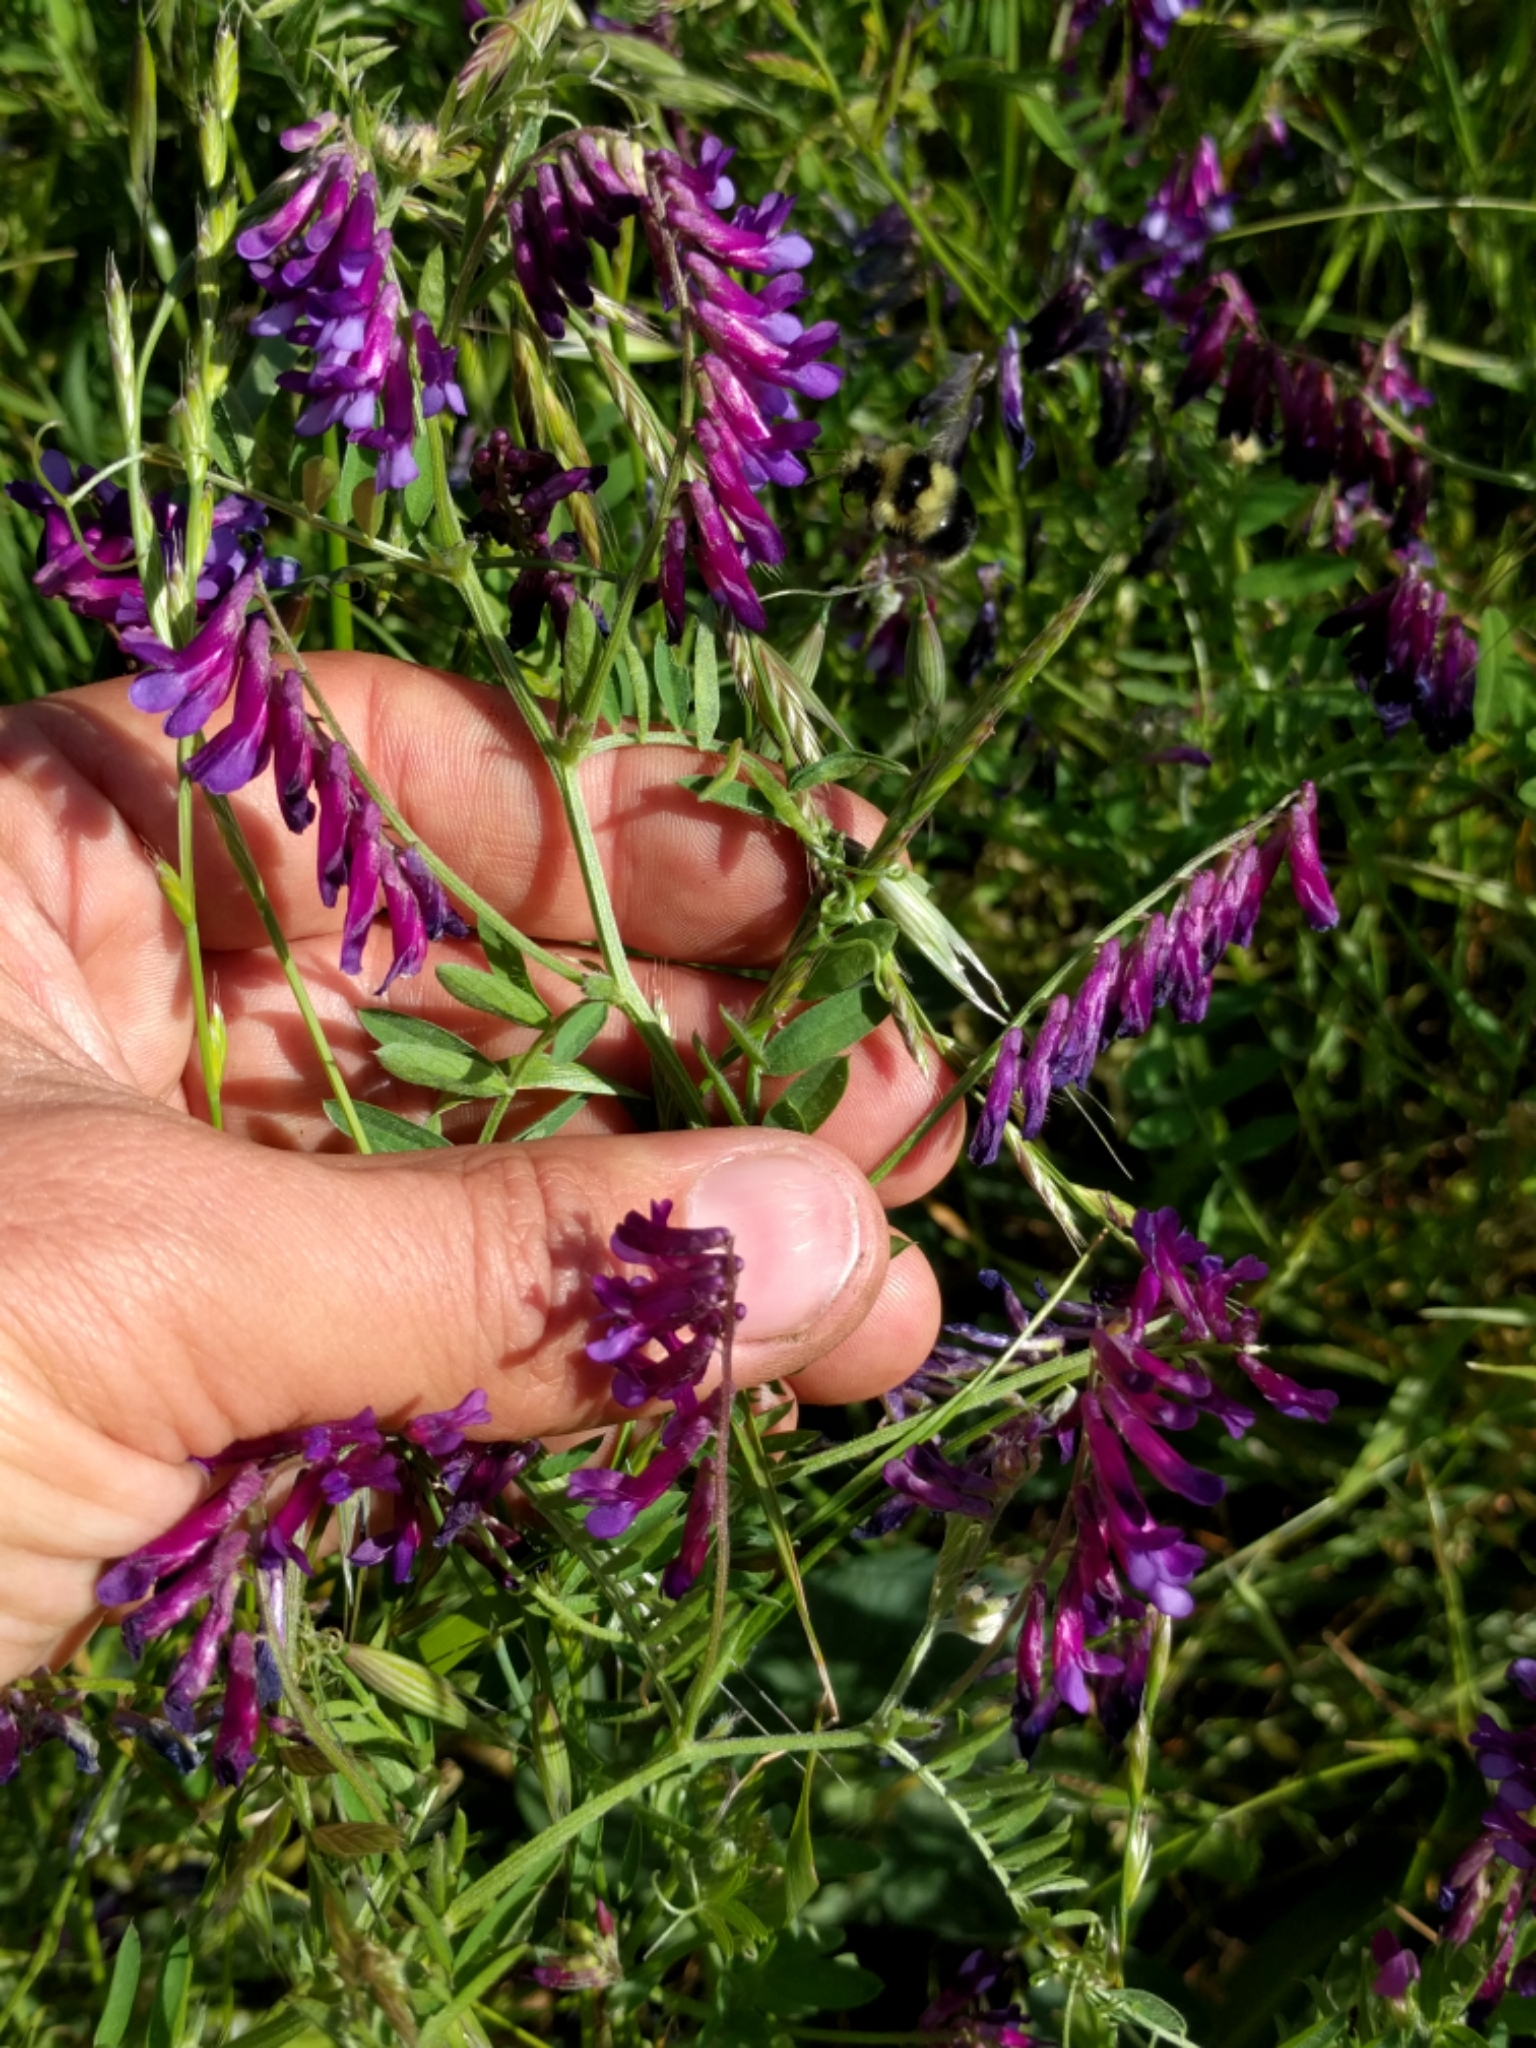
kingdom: Plantae
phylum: Tracheophyta
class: Magnoliopsida
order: Fabales
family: Fabaceae
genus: Vicia
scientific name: Vicia villosa
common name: Fodder vetch
